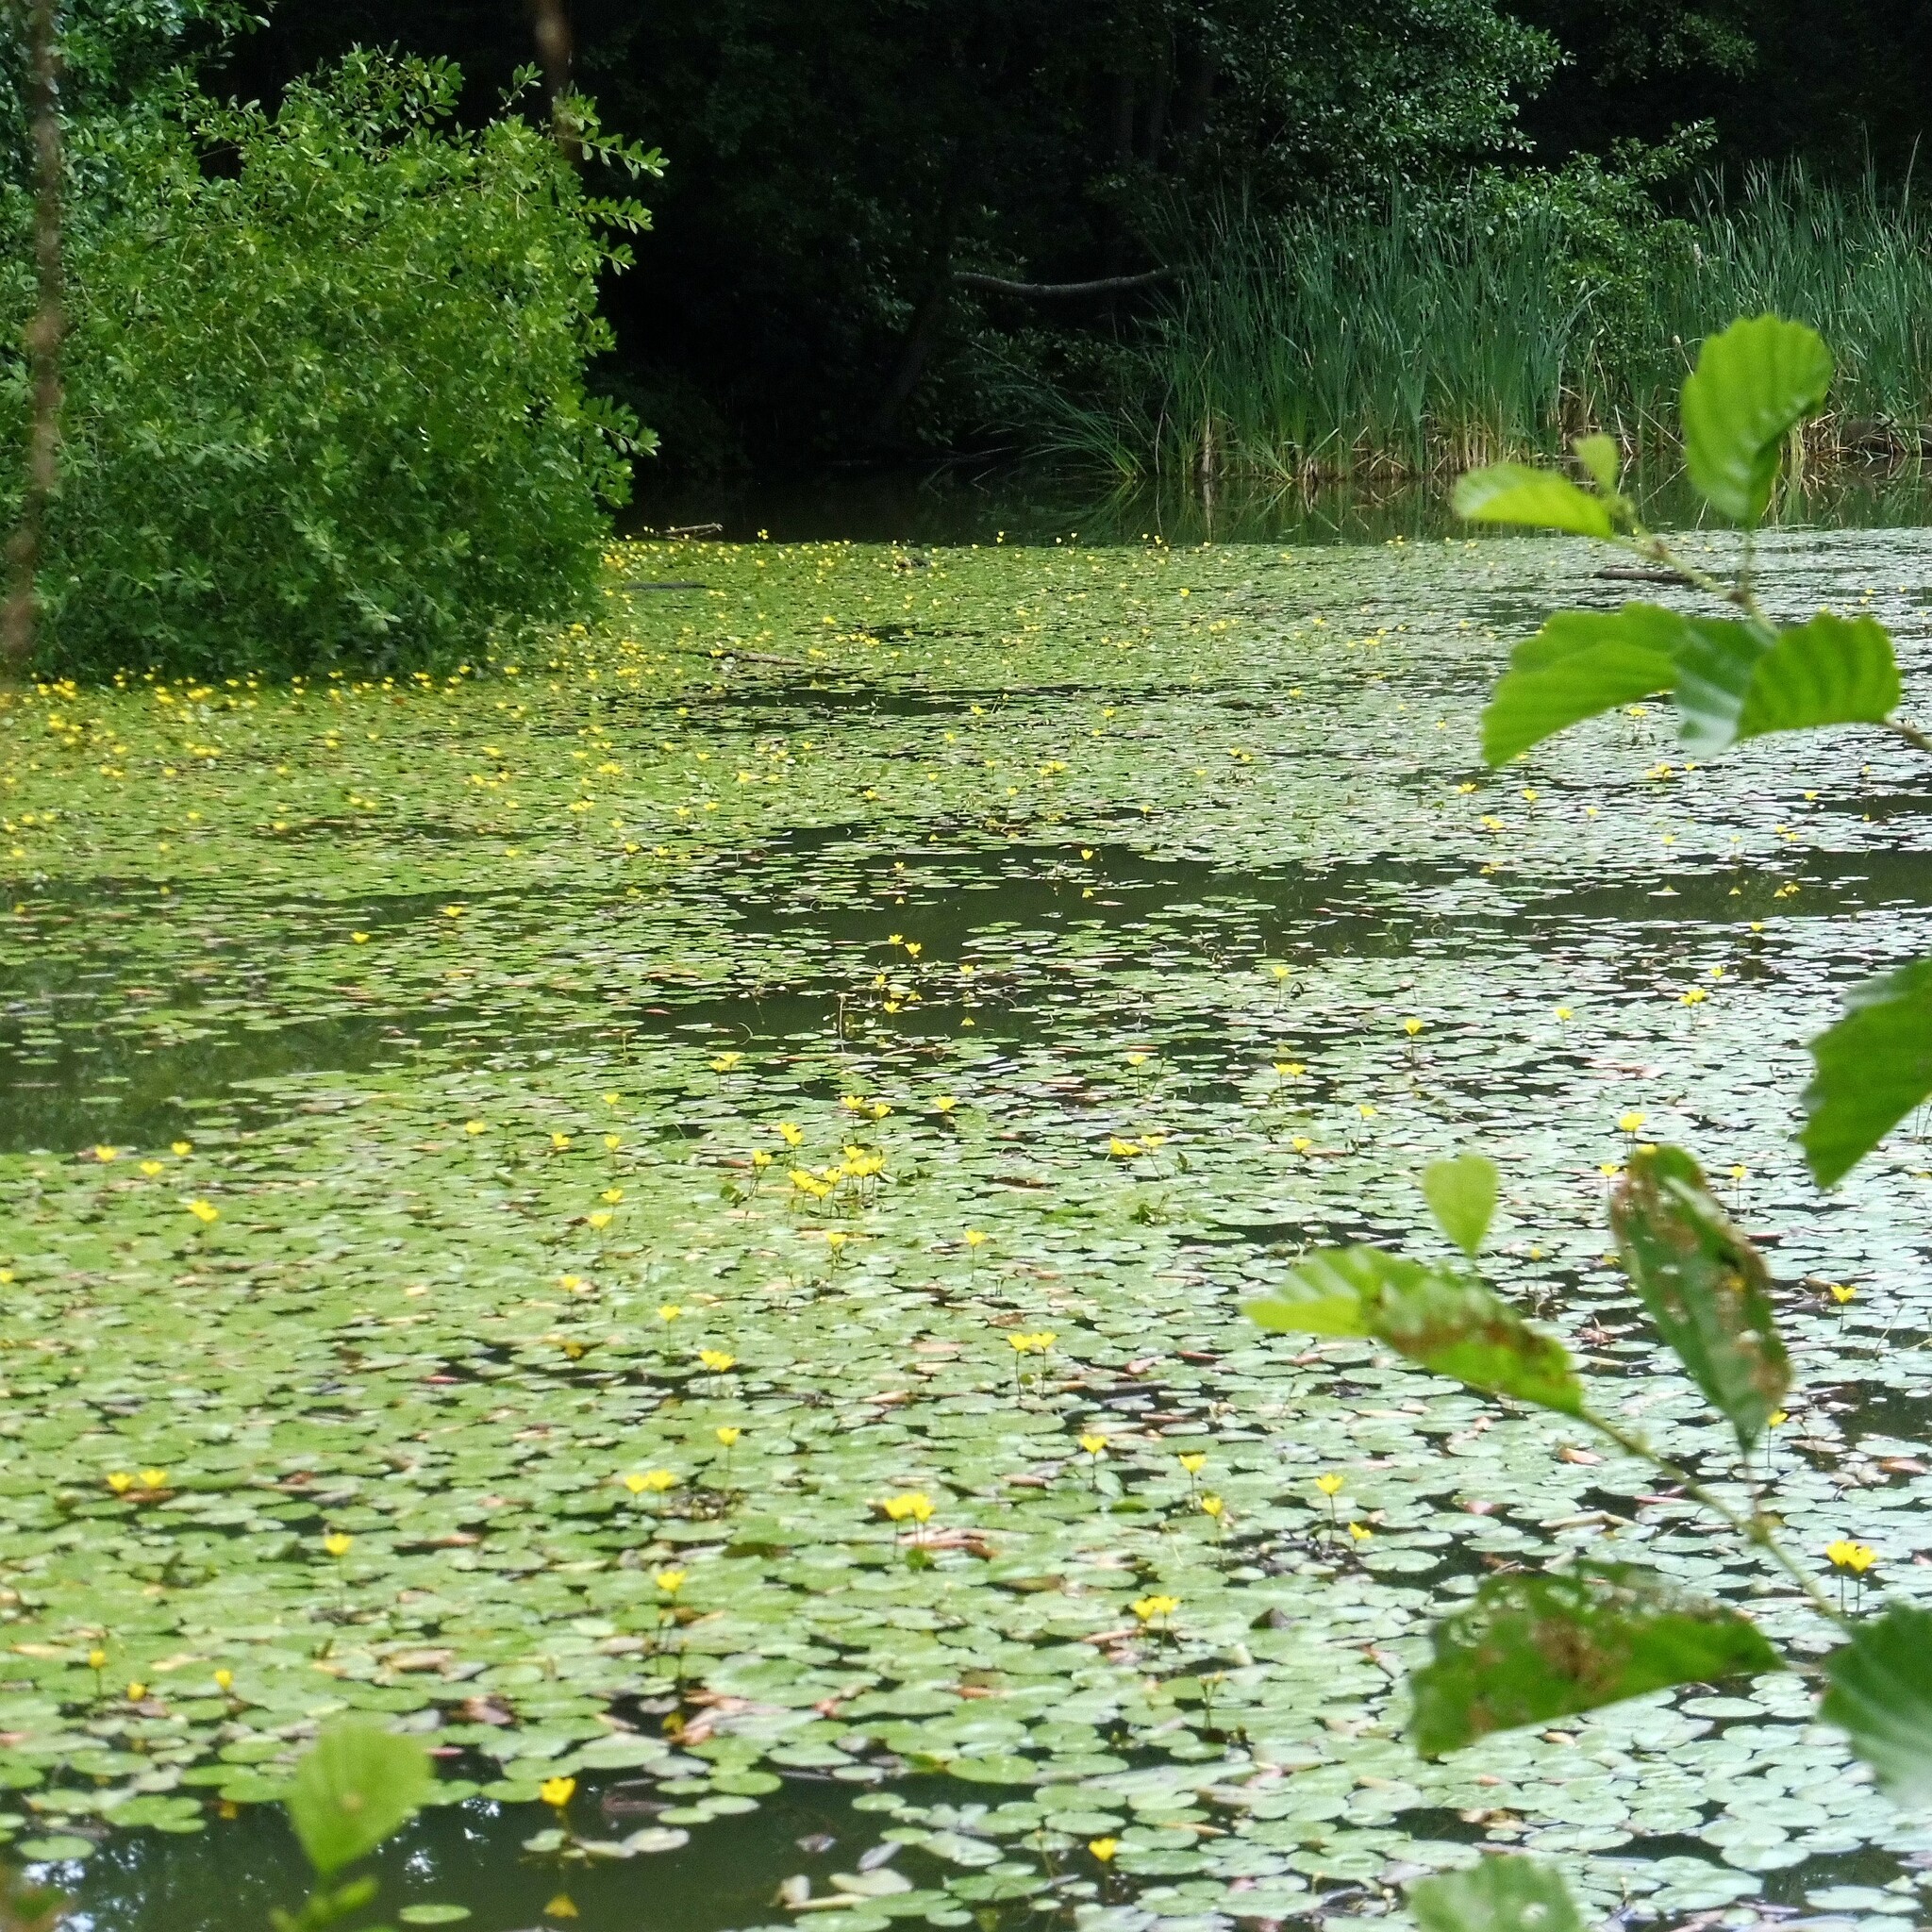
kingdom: Plantae
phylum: Tracheophyta
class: Magnoliopsida
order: Asterales
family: Menyanthaceae
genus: Nymphoides
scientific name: Nymphoides peltata
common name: Fringed water-lily
